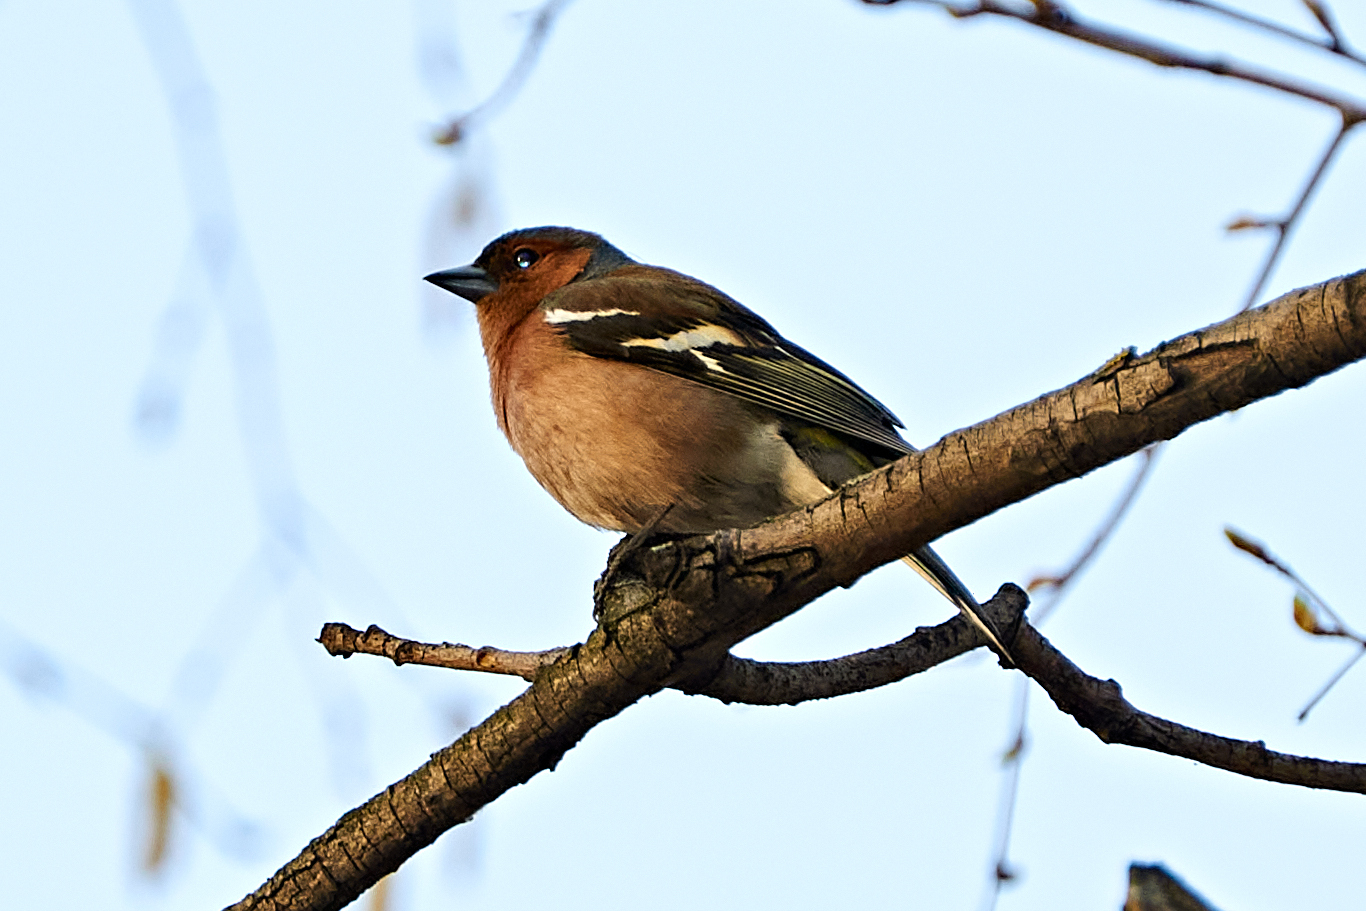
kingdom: Animalia
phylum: Chordata
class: Aves
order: Passeriformes
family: Fringillidae
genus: Fringilla
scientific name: Fringilla coelebs
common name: Common chaffinch
